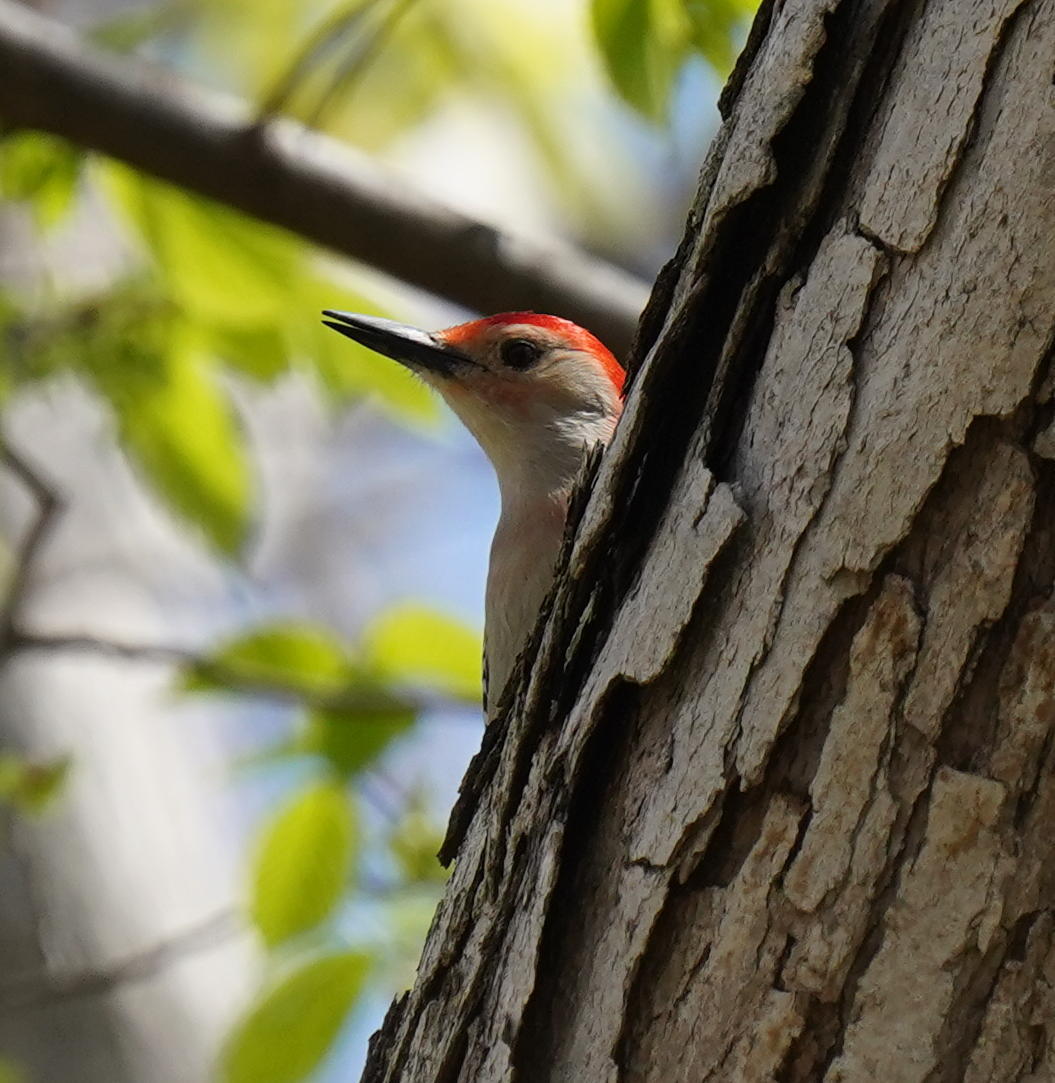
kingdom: Animalia
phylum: Chordata
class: Aves
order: Piciformes
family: Picidae
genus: Melanerpes
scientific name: Melanerpes carolinus
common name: Red-bellied woodpecker
